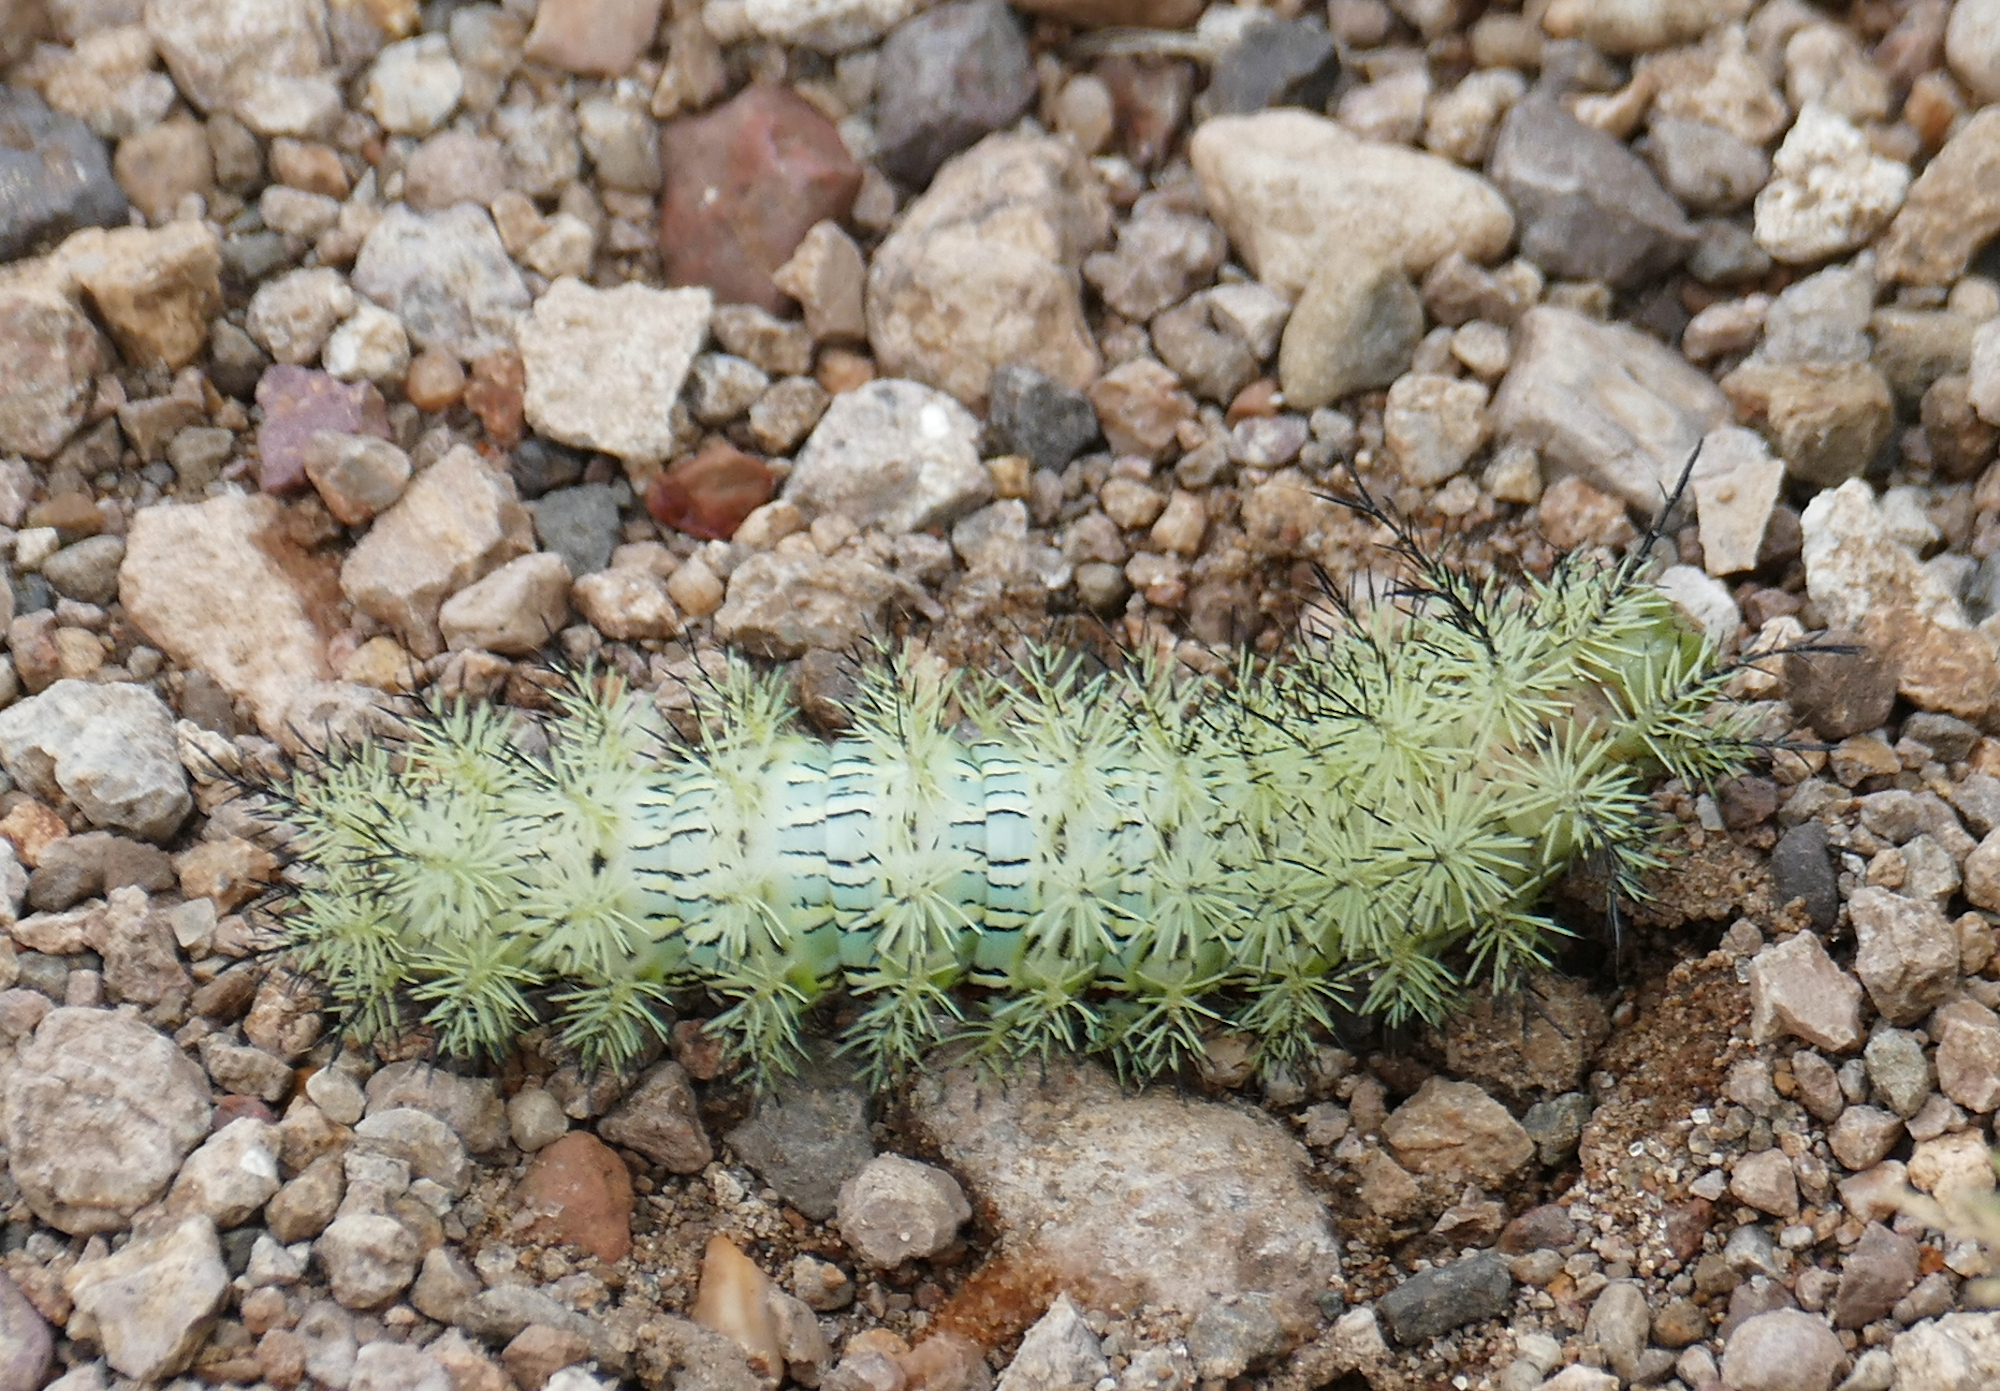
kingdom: Animalia
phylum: Arthropoda
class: Insecta
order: Lepidoptera
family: Saturniidae
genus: Automeris
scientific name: Automeris cecrops
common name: Cecrops eyed silkmoth
